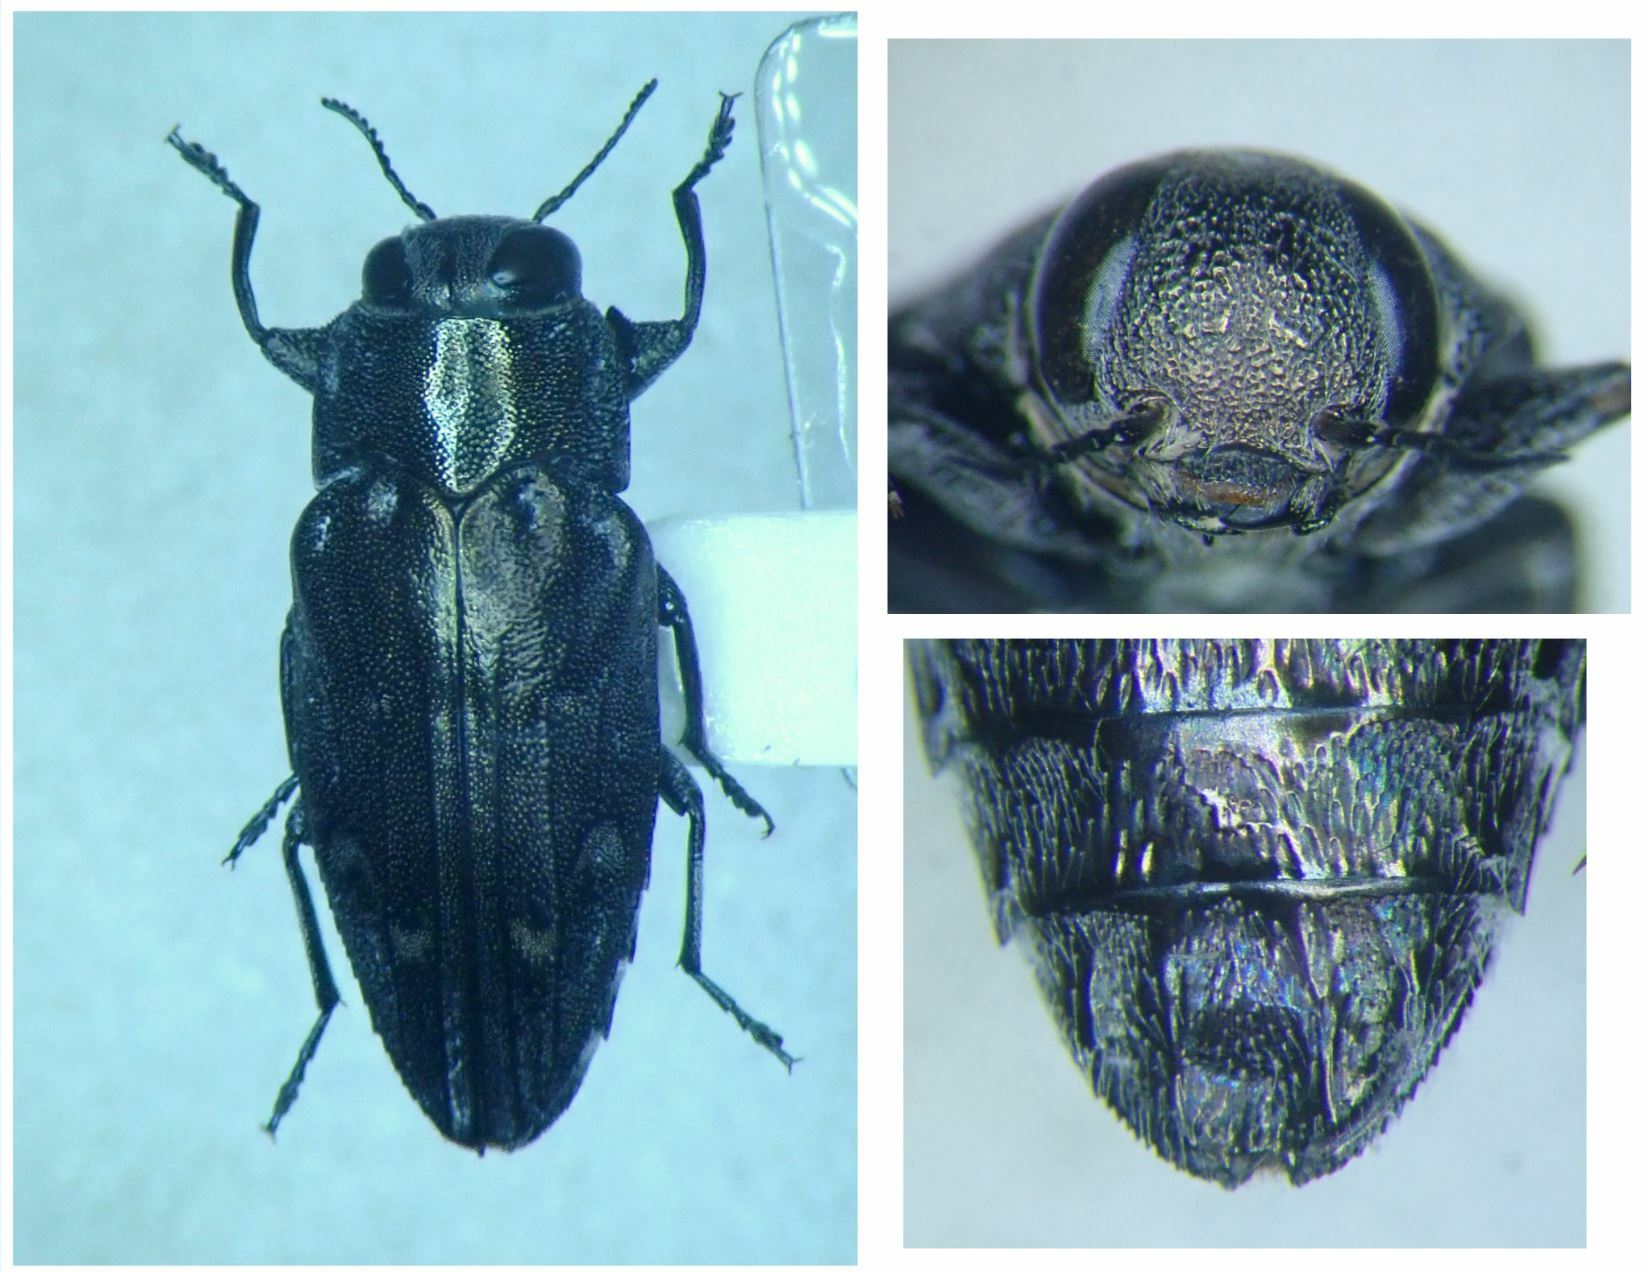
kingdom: Animalia
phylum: Arthropoda
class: Insecta
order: Coleoptera
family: Buprestidae
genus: Chrysobothris
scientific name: Chrysobothris peninsularis
